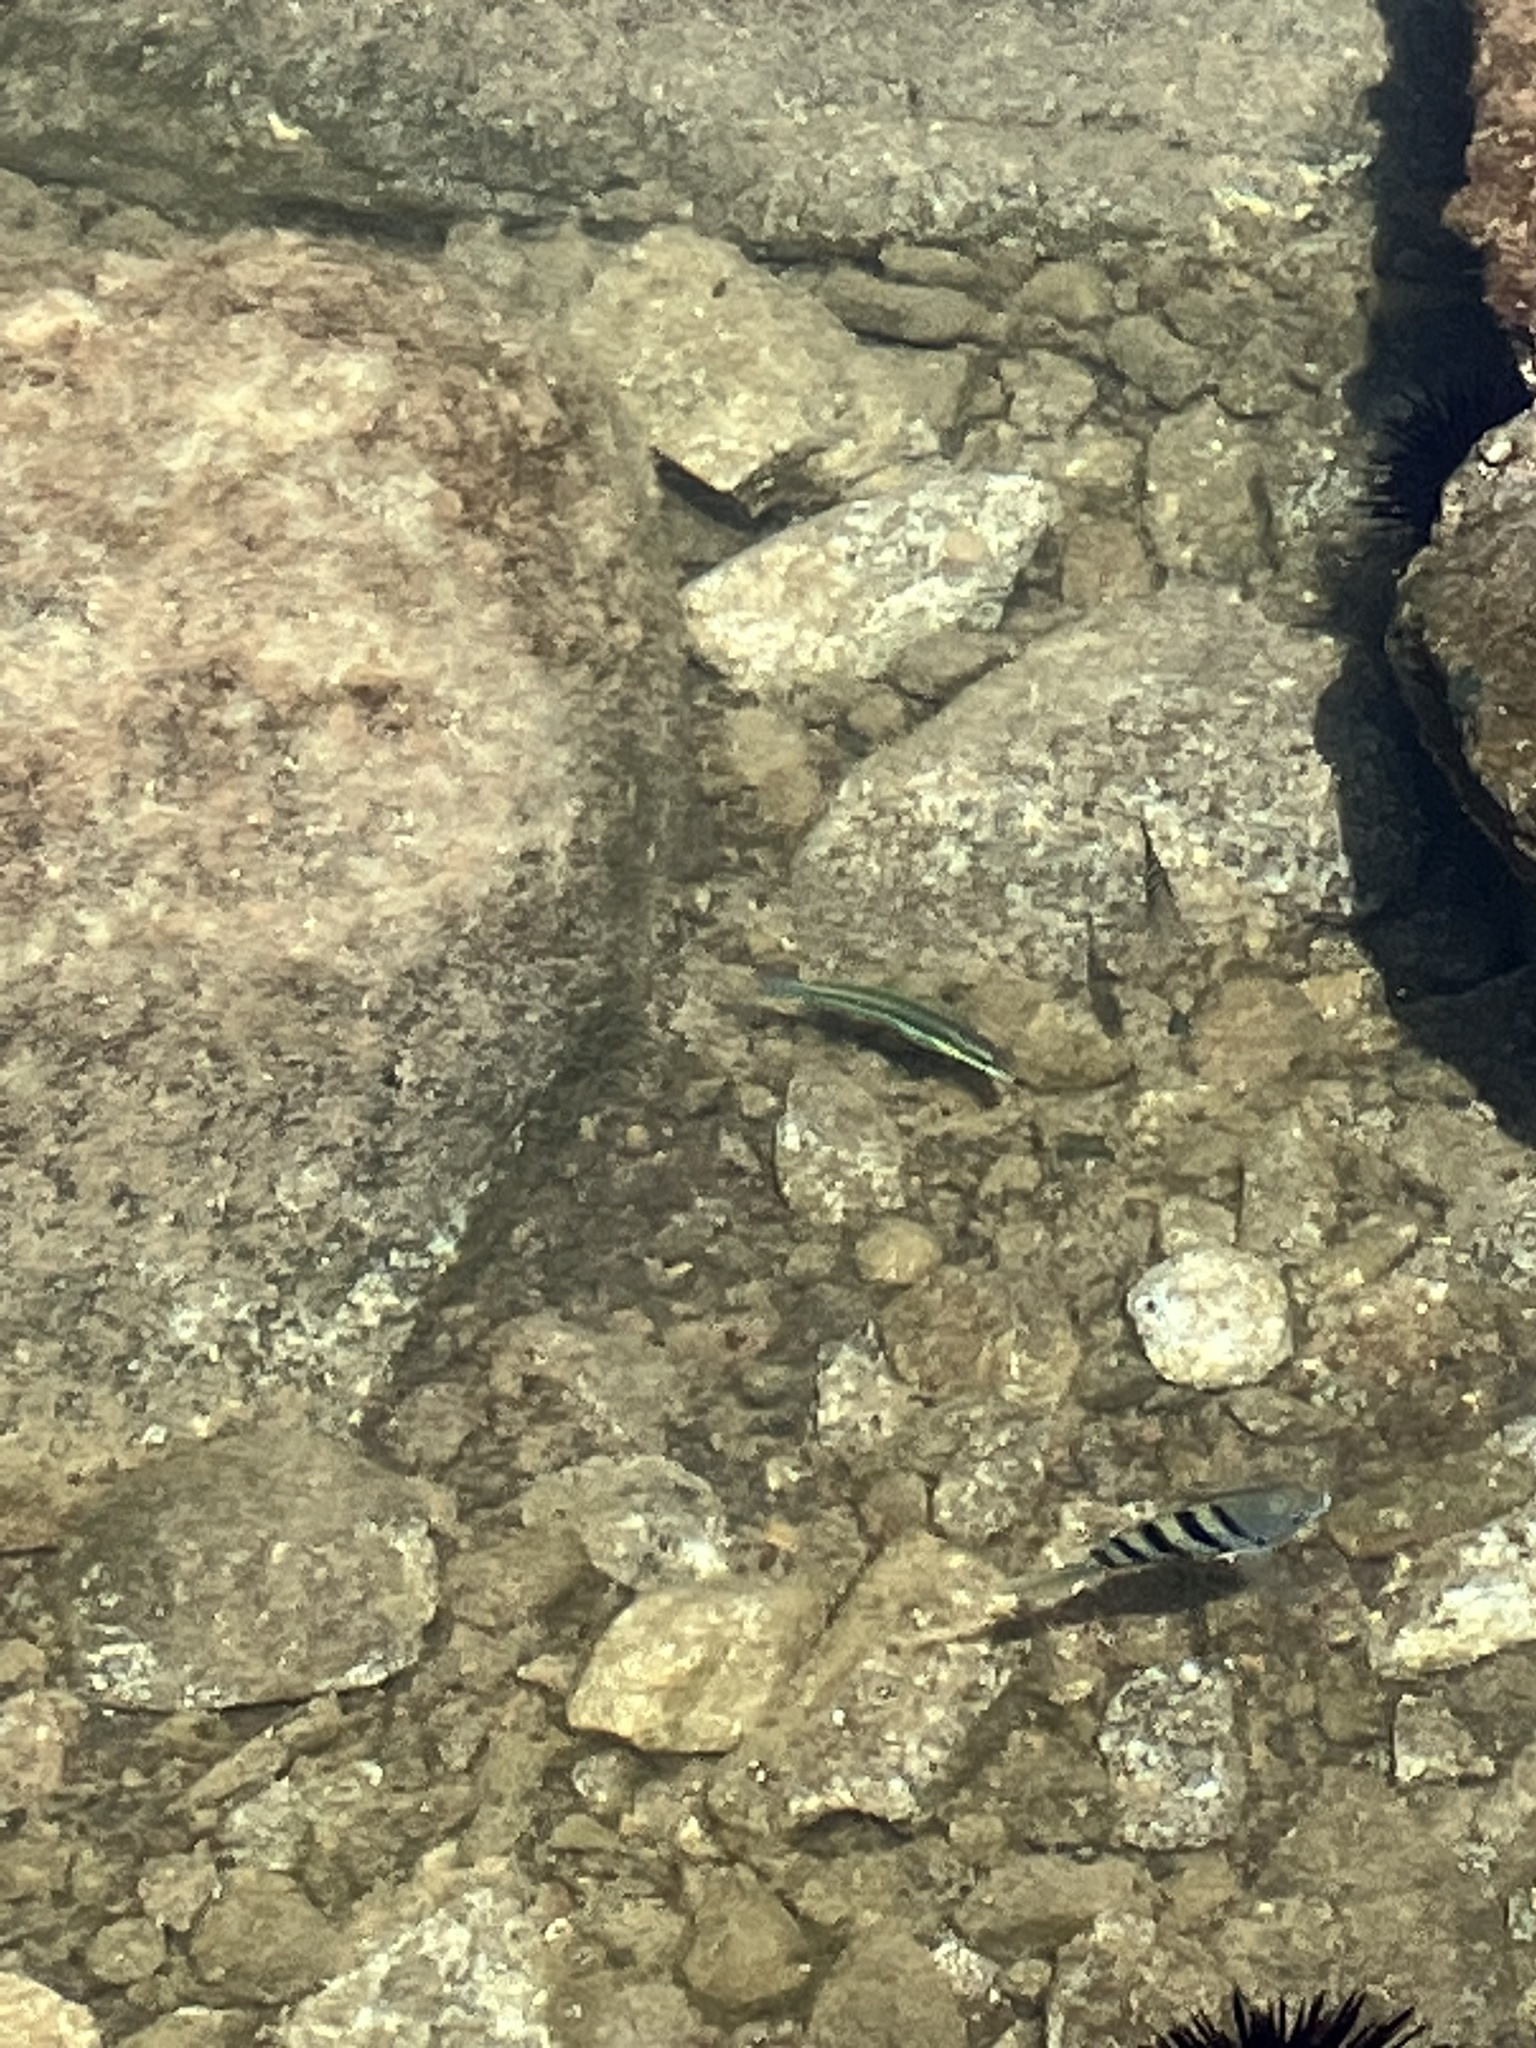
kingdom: Animalia
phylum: Chordata
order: Perciformes
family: Labridae
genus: Thalassoma
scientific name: Thalassoma sanctaehelenae
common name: Greenfish
